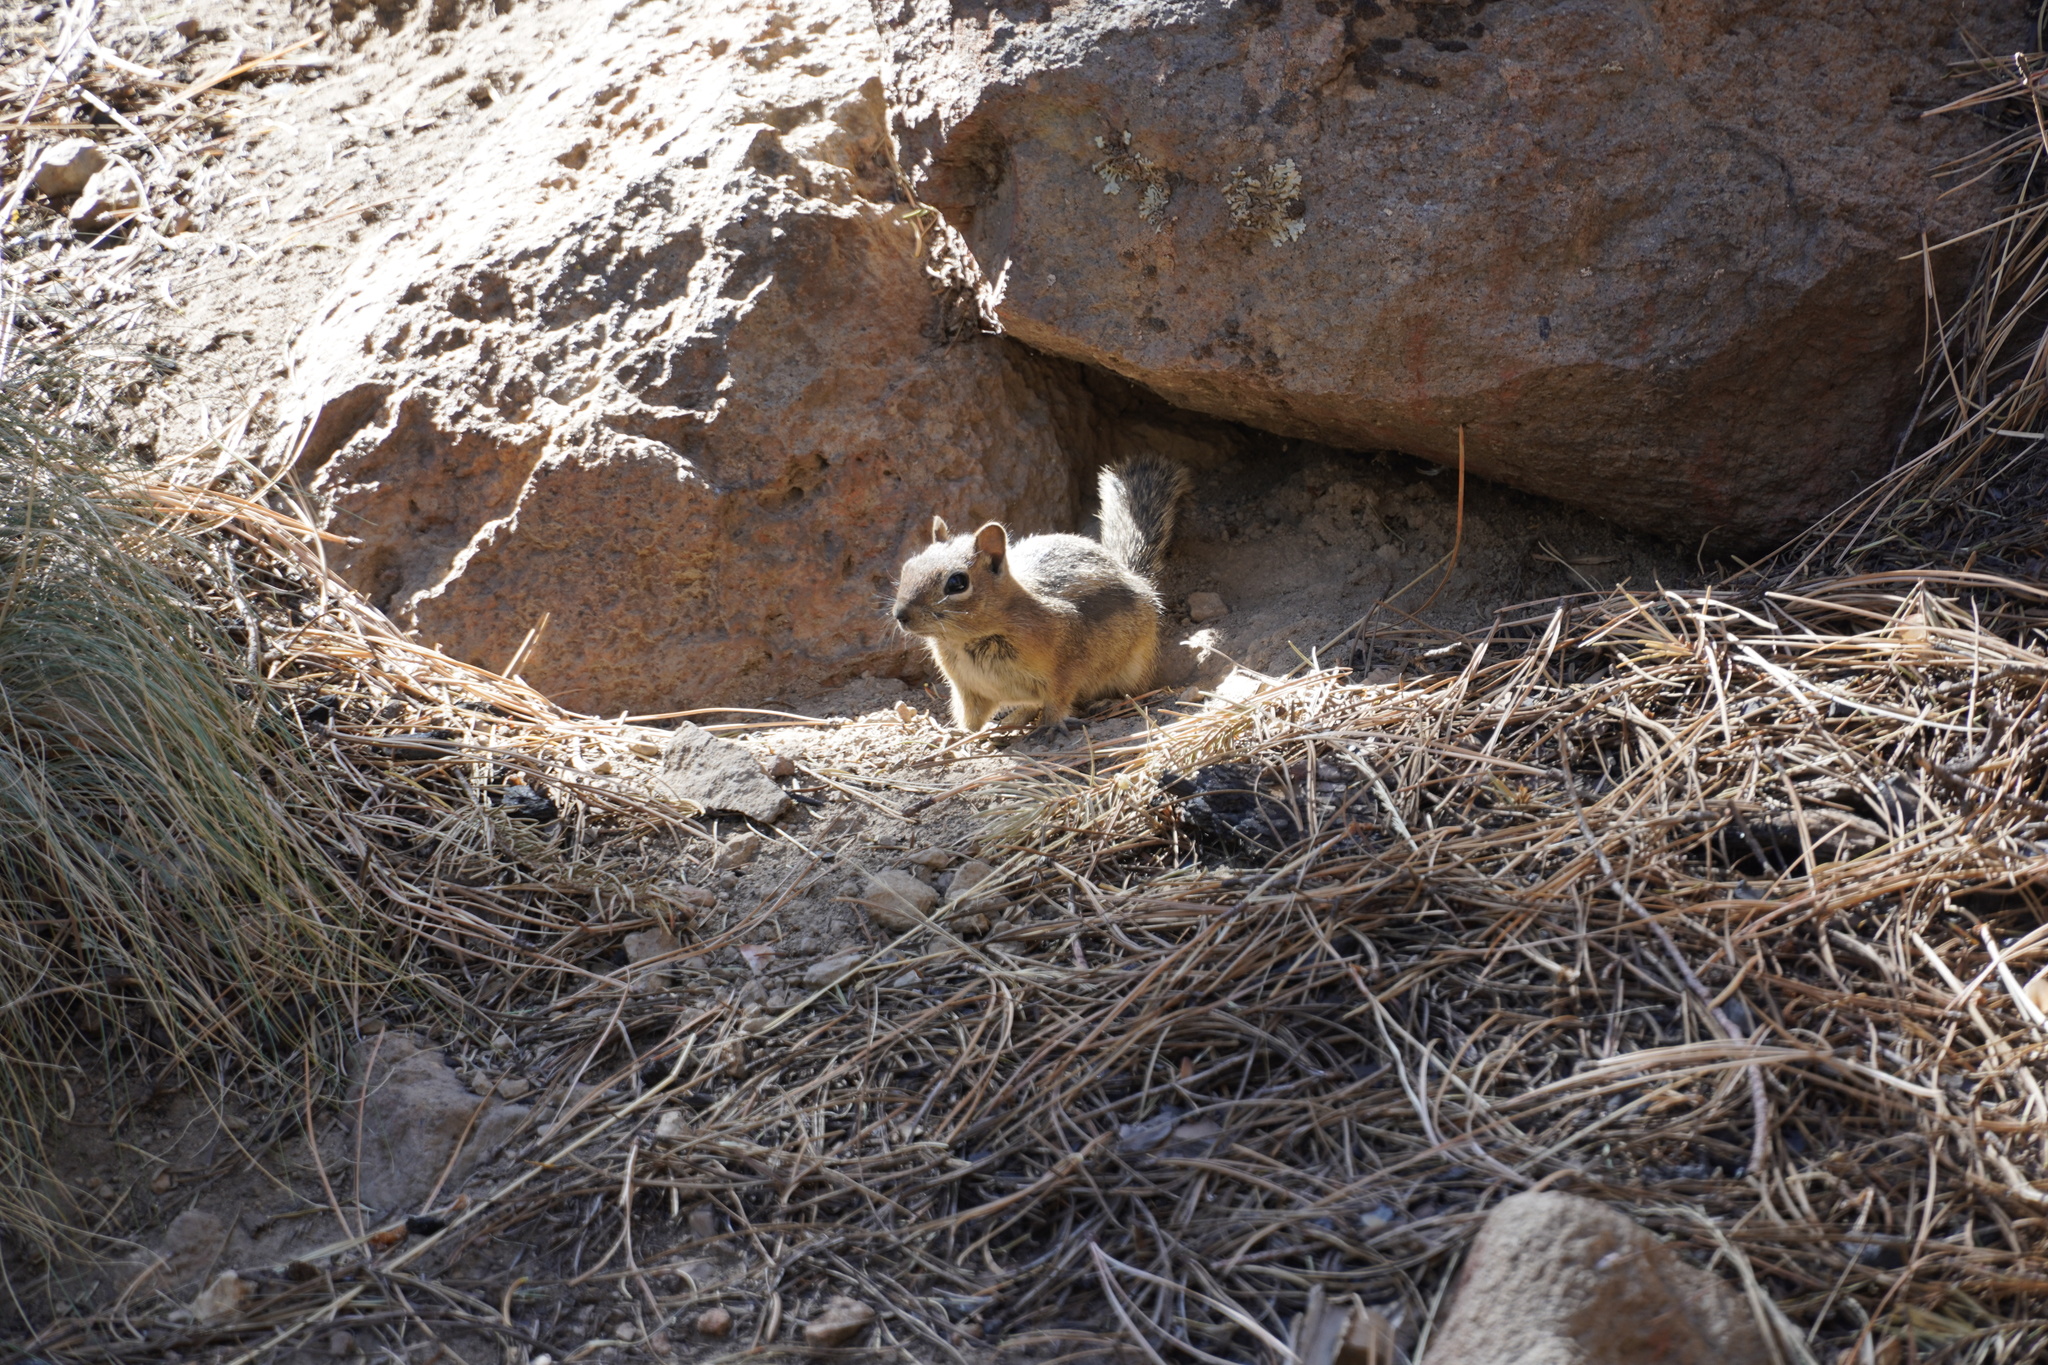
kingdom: Animalia
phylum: Chordata
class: Mammalia
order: Rodentia
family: Sciuridae
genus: Callospermophilus
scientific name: Callospermophilus lateralis
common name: Golden-mantled ground squirrel
